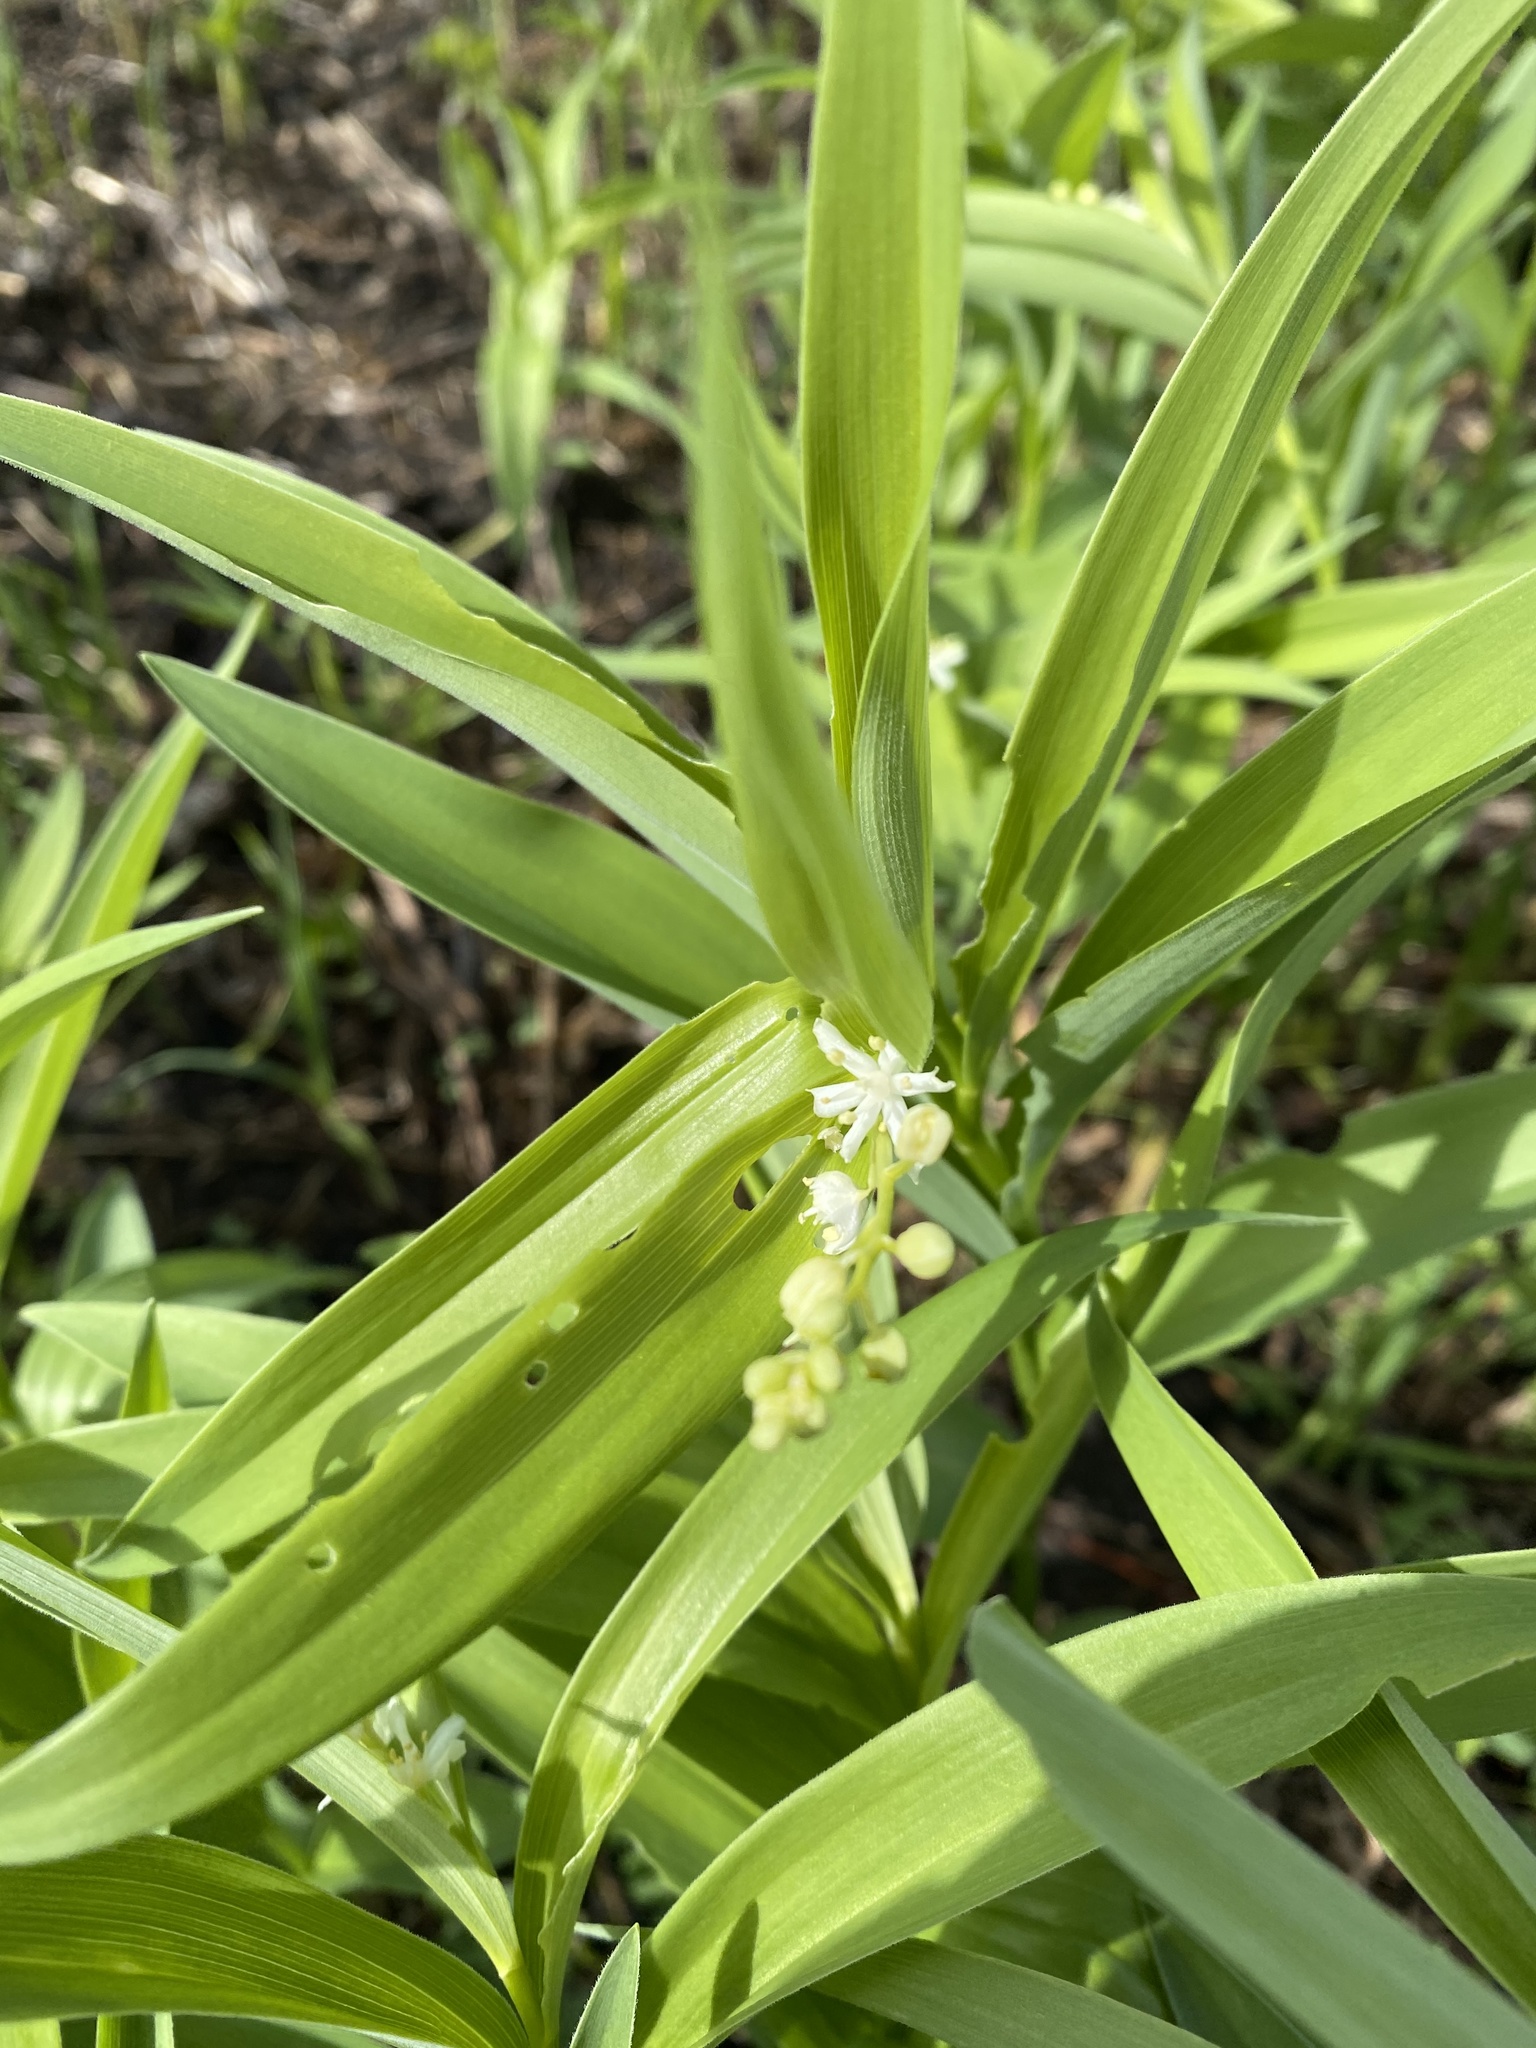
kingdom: Plantae
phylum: Tracheophyta
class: Liliopsida
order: Asparagales
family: Asparagaceae
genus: Maianthemum
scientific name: Maianthemum stellatum
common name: Little false solomon's seal
